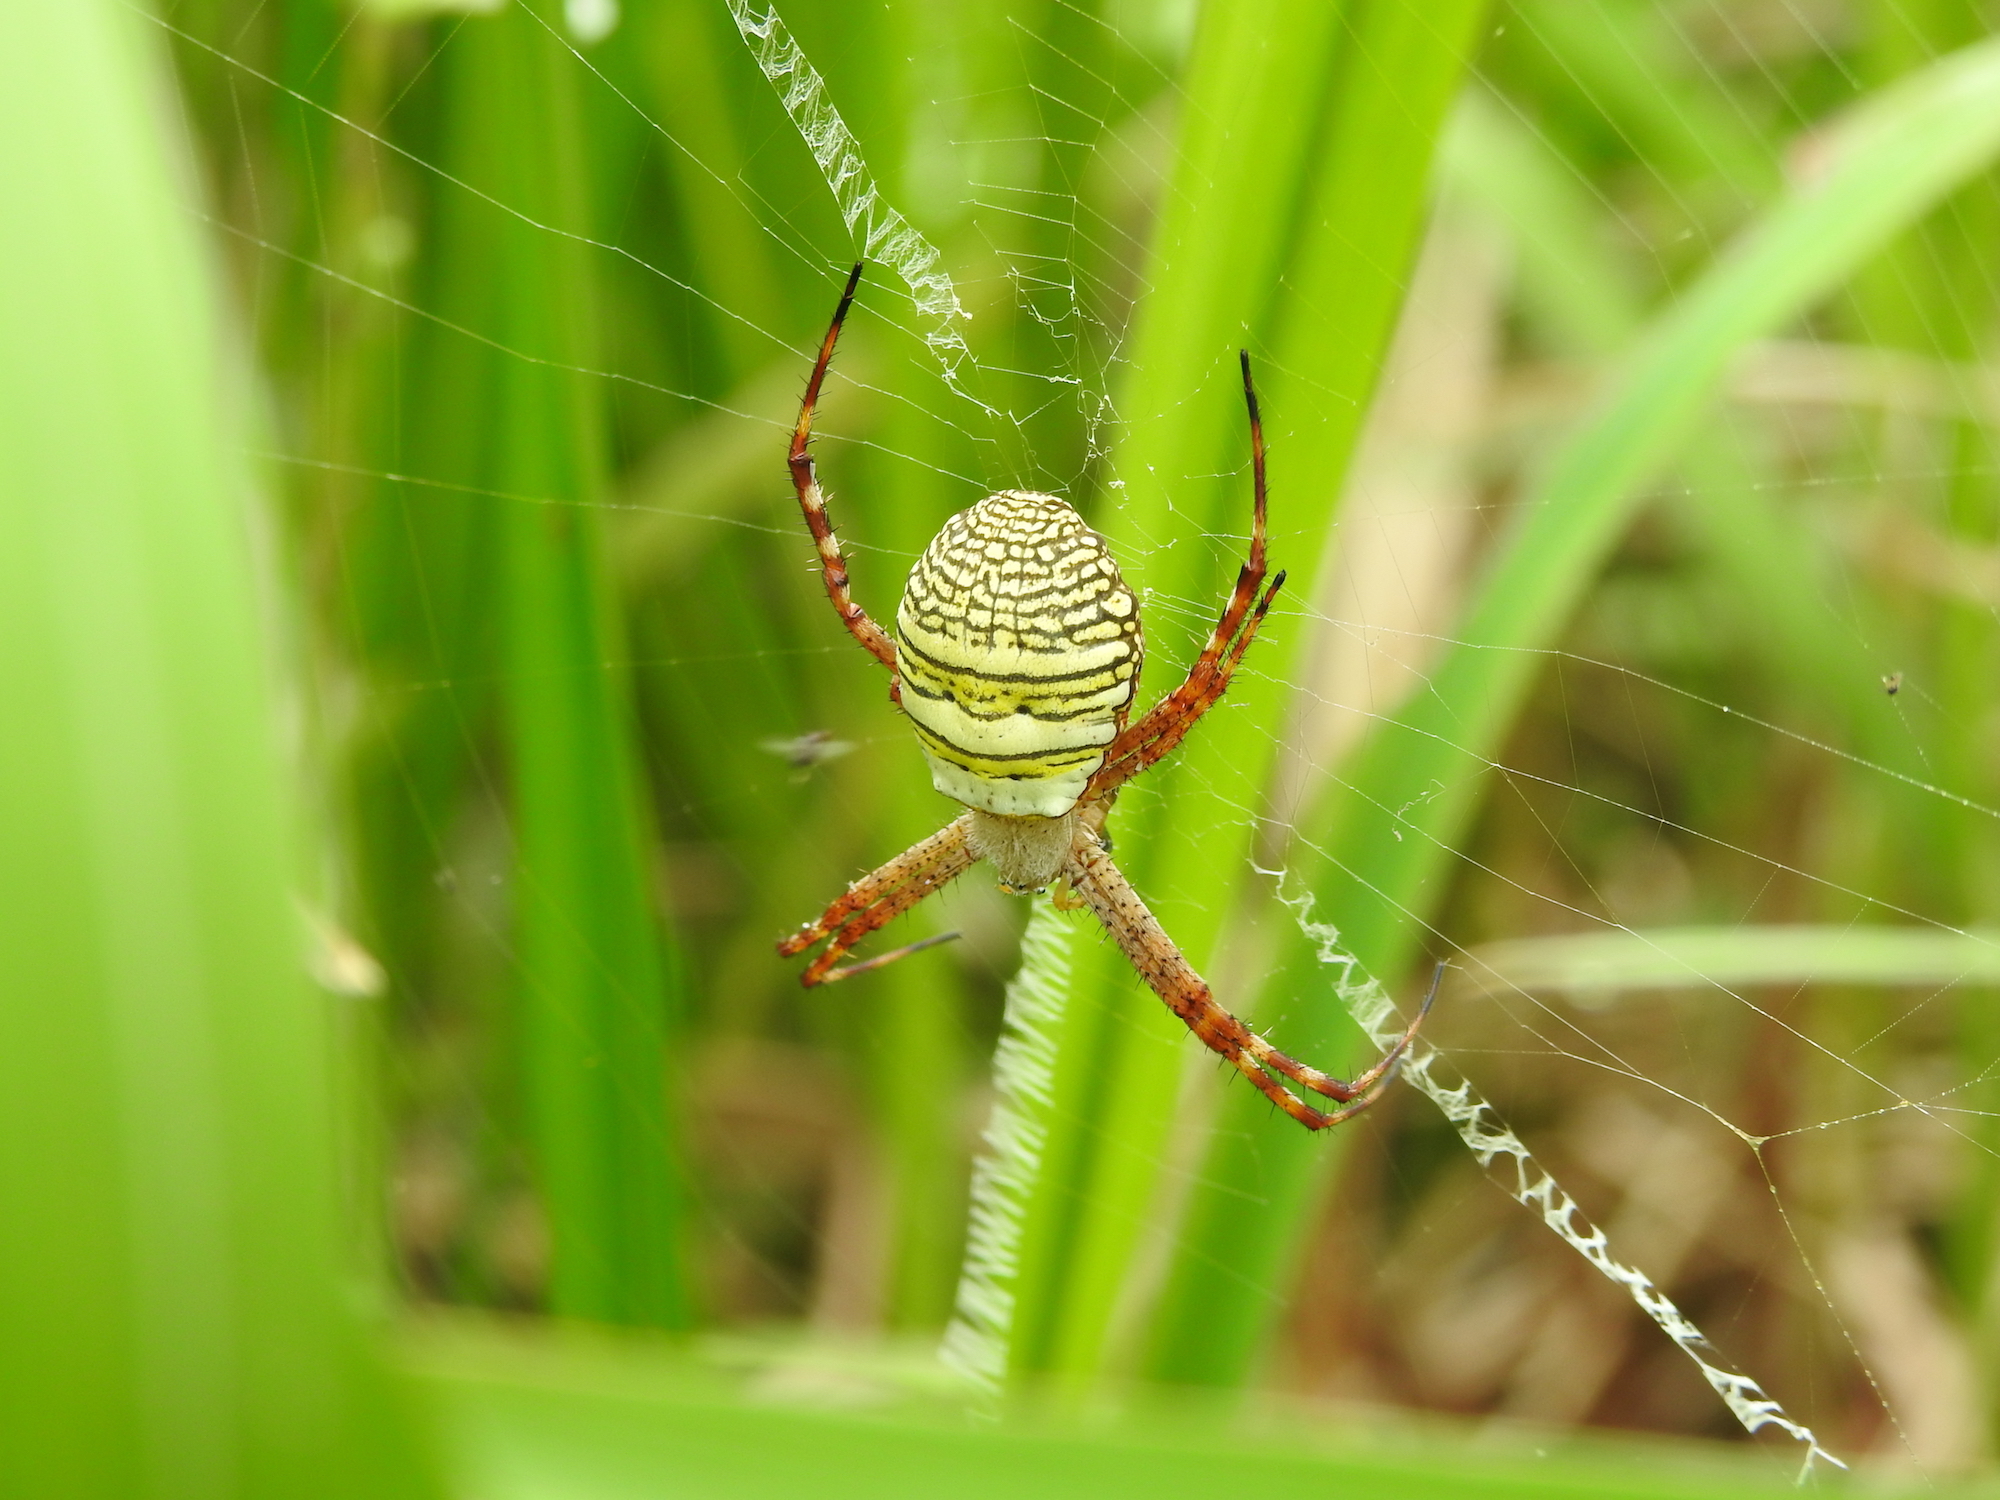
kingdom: Animalia
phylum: Arthropoda
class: Arachnida
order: Araneae
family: Araneidae
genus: Argiope
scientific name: Argiope aemula
